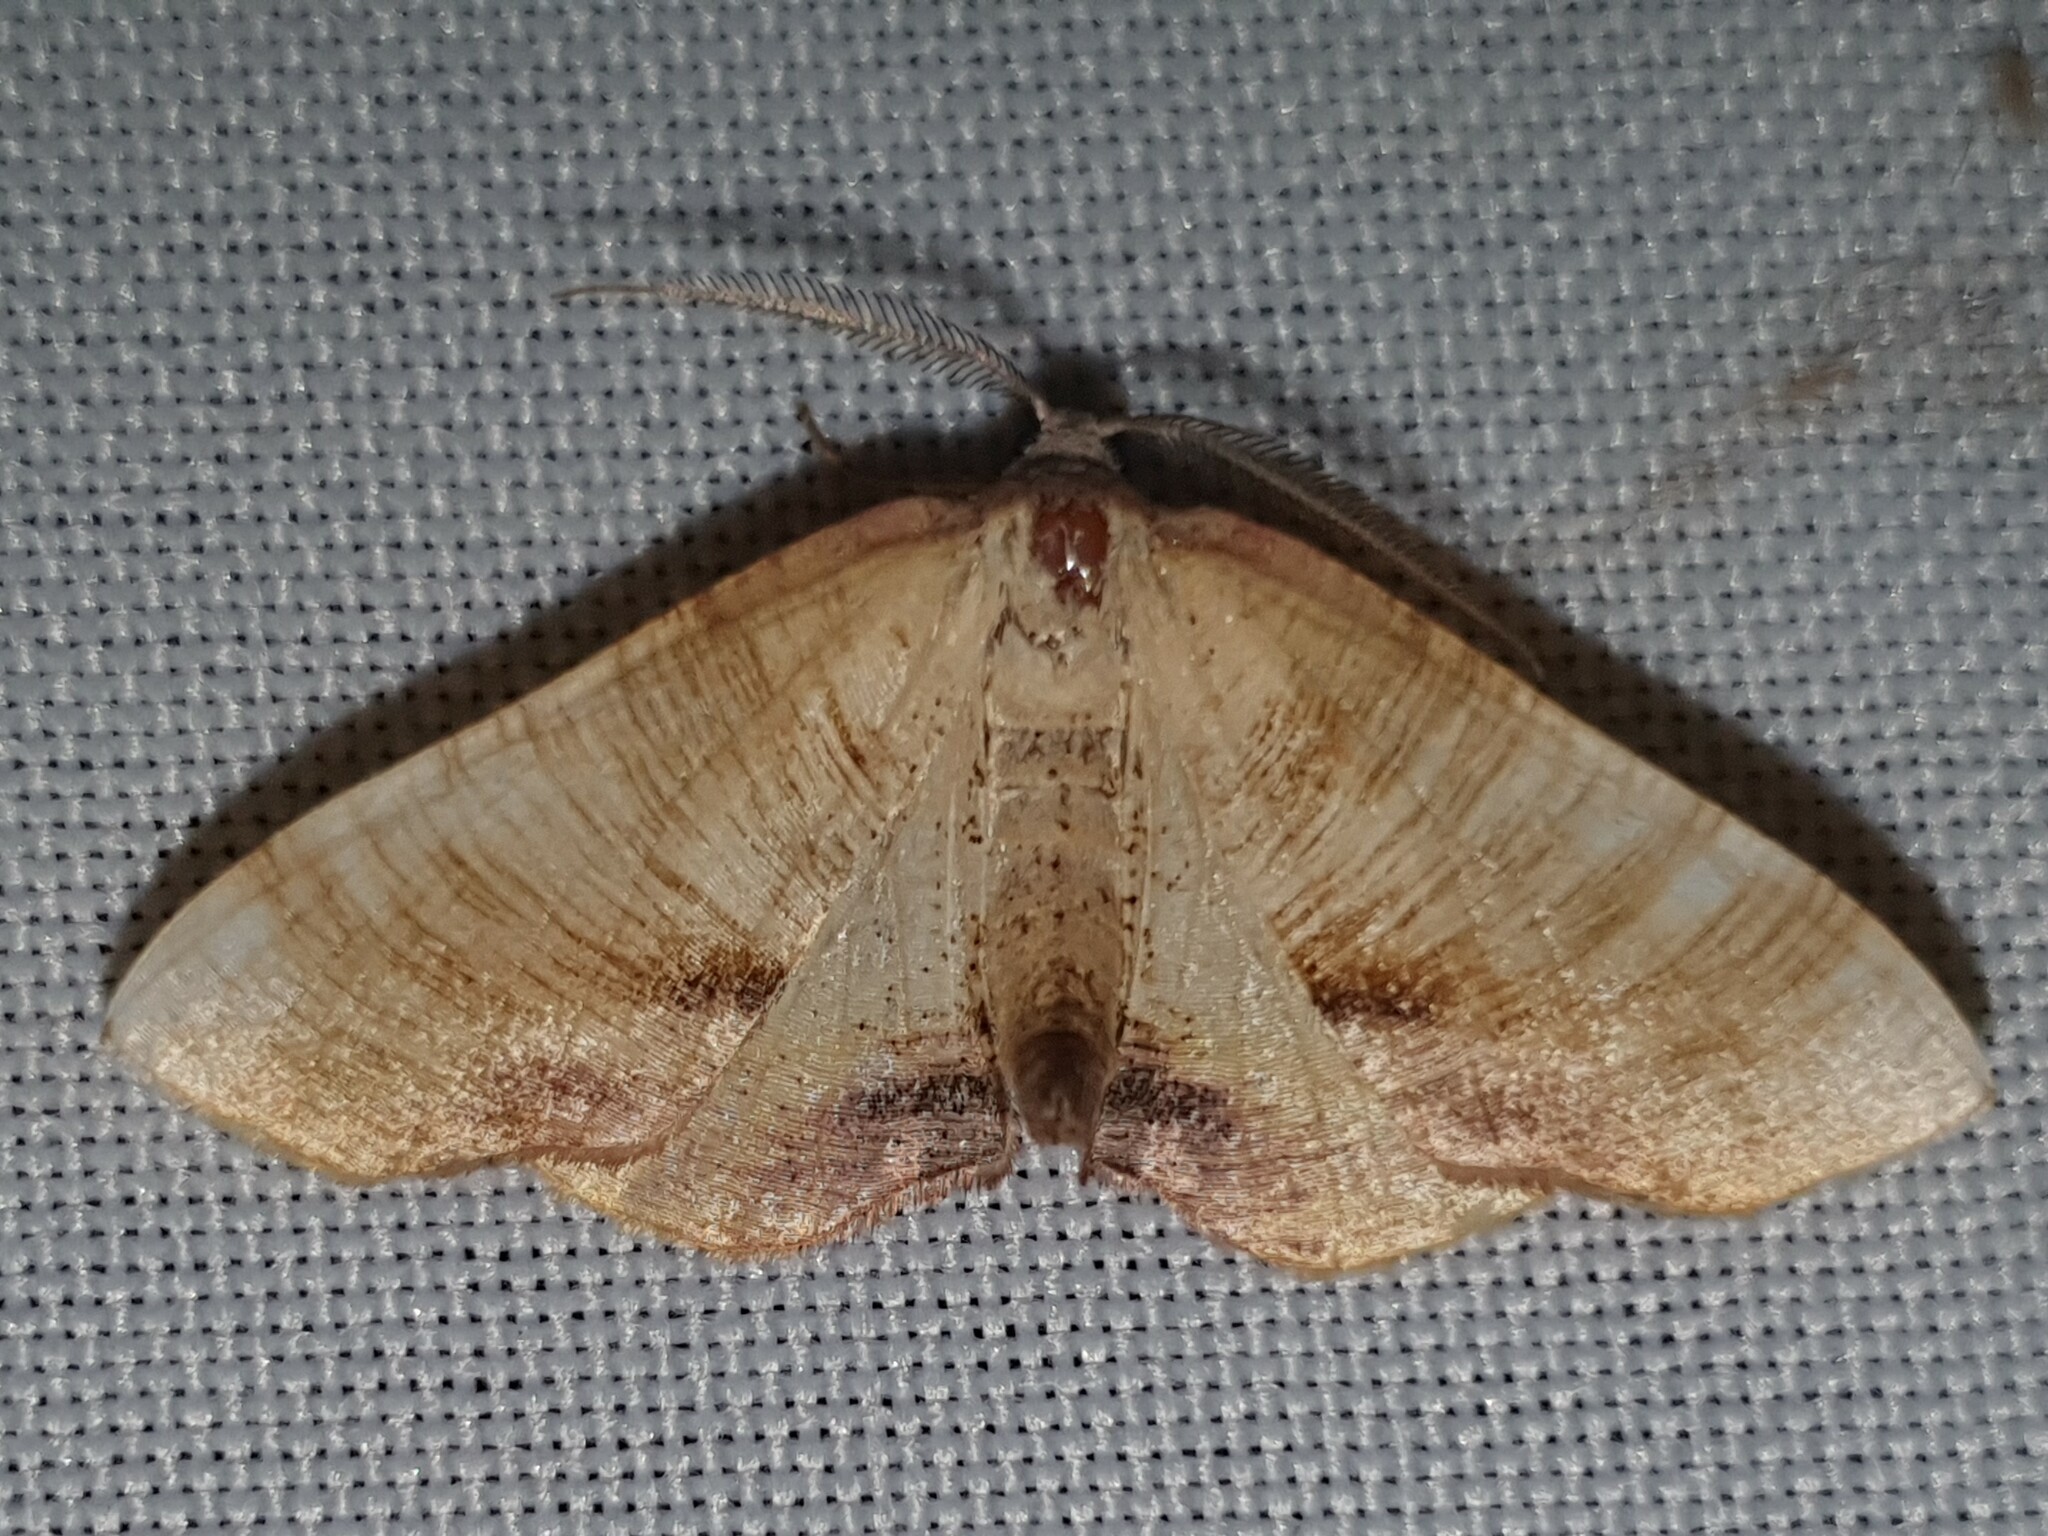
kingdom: Animalia
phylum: Arthropoda
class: Insecta
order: Lepidoptera
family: Geometridae
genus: Plagodis
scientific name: Plagodis dolabraria
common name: Scorched wing
